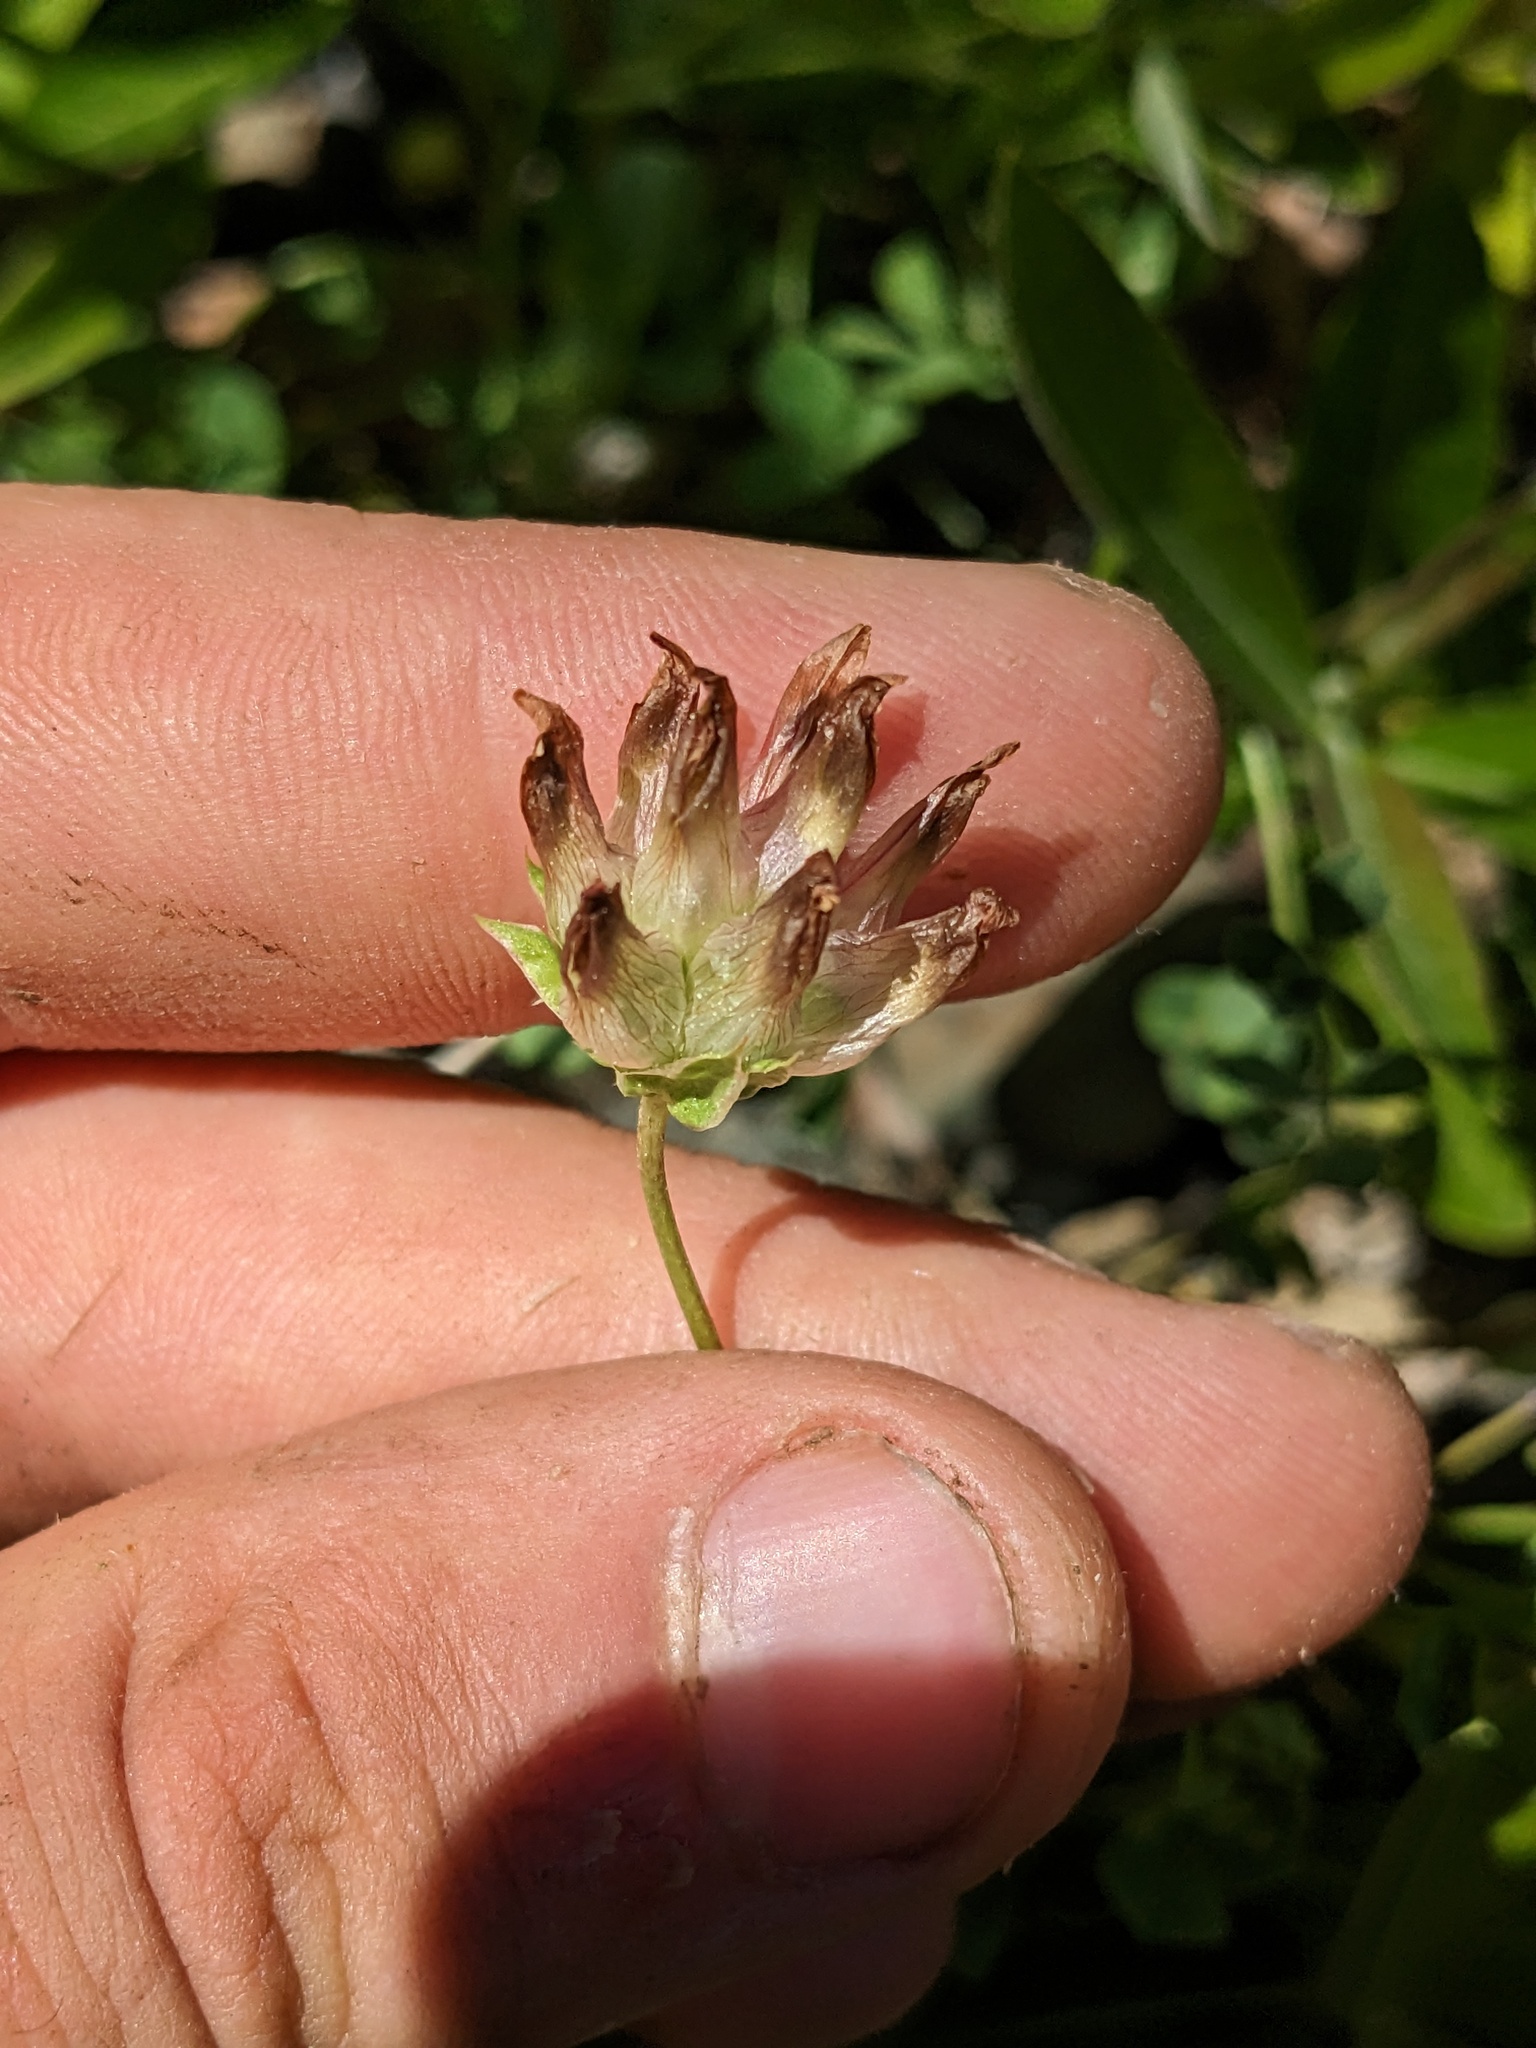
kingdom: Plantae
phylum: Tracheophyta
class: Magnoliopsida
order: Fabales
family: Fabaceae
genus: Trifolium
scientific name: Trifolium fucatum
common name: Puff clover
